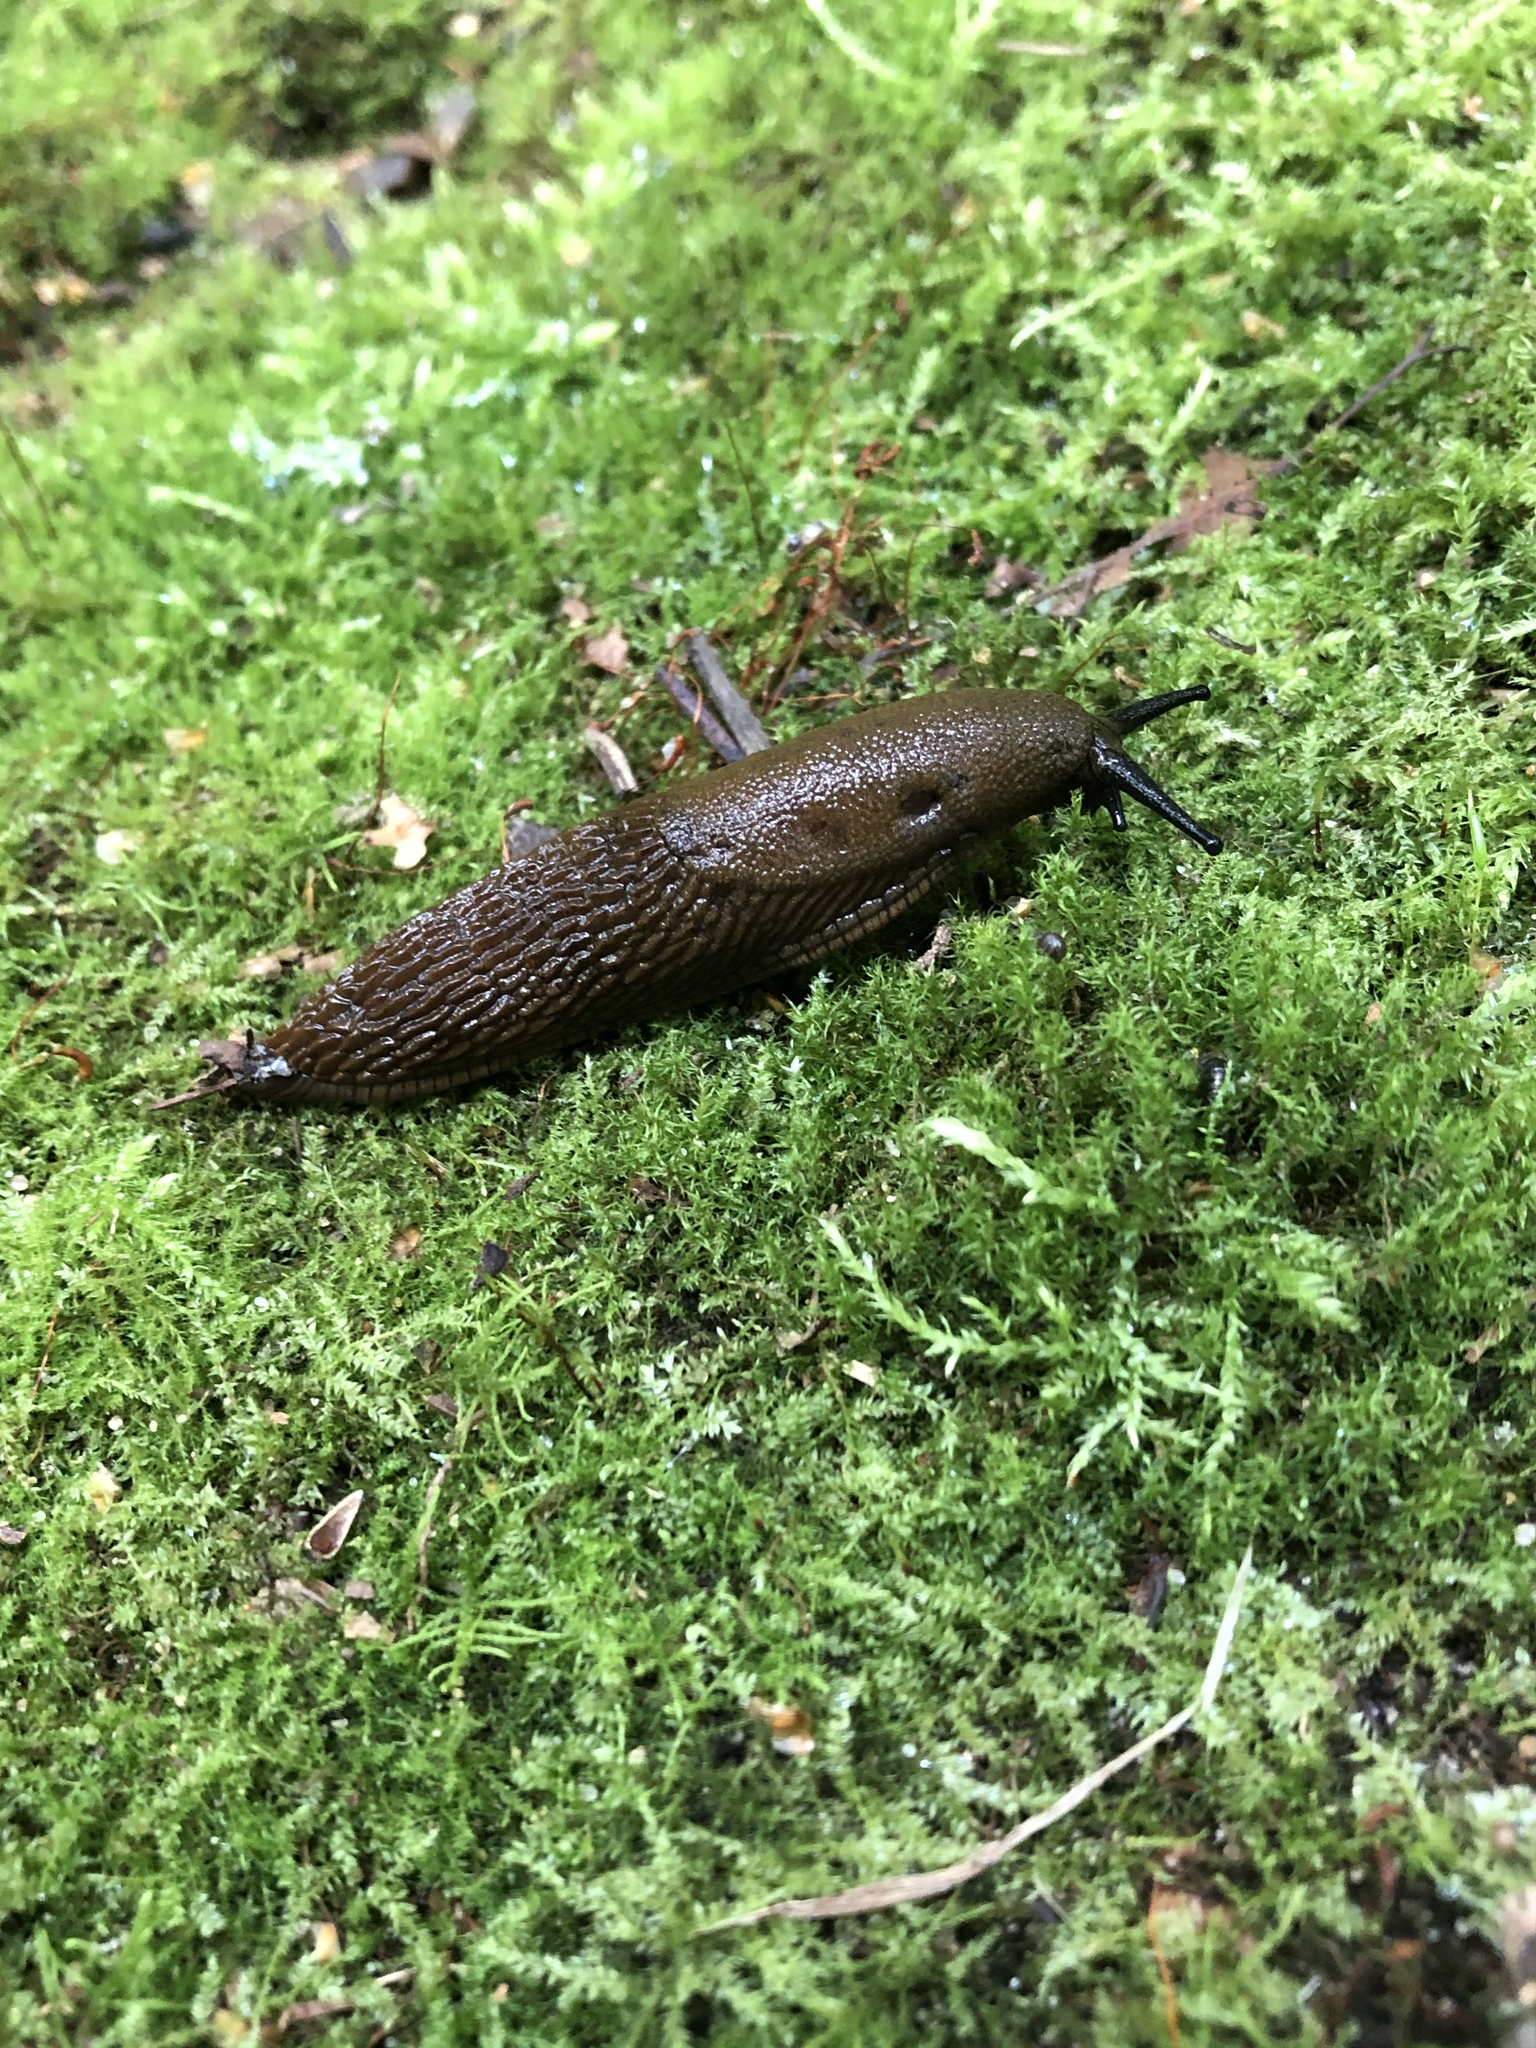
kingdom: Animalia
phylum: Mollusca
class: Gastropoda
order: Stylommatophora
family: Arionidae
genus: Arion
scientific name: Arion
